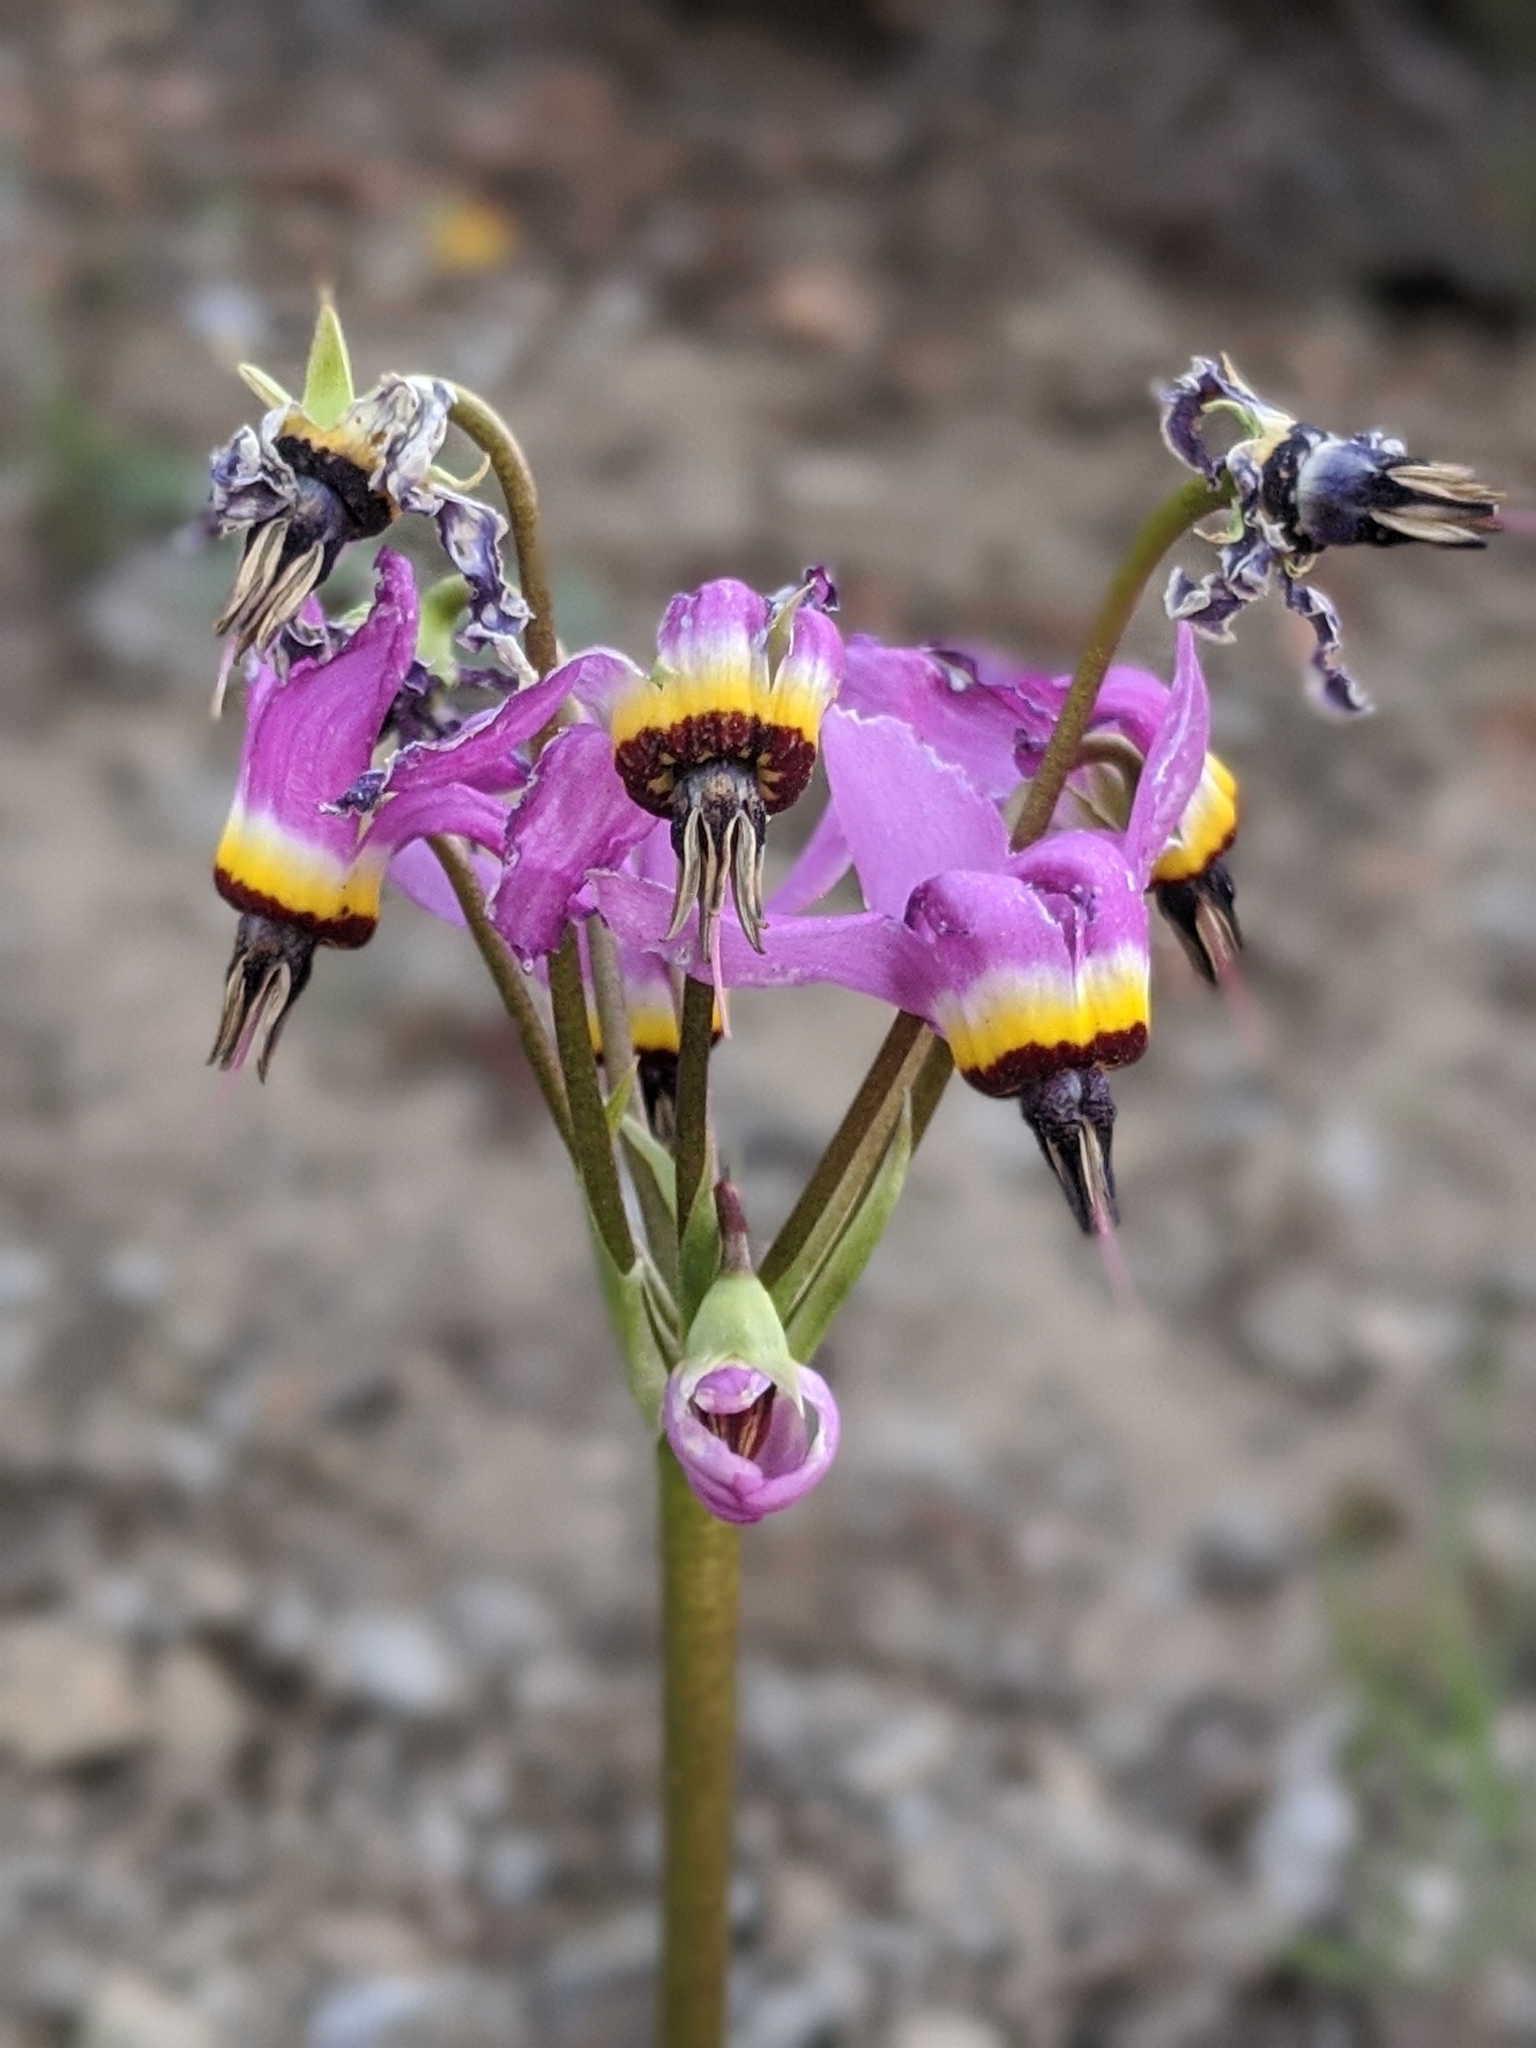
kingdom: Plantae
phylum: Tracheophyta
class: Magnoliopsida
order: Ericales
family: Primulaceae
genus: Dodecatheon
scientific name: Dodecatheon hendersonii
